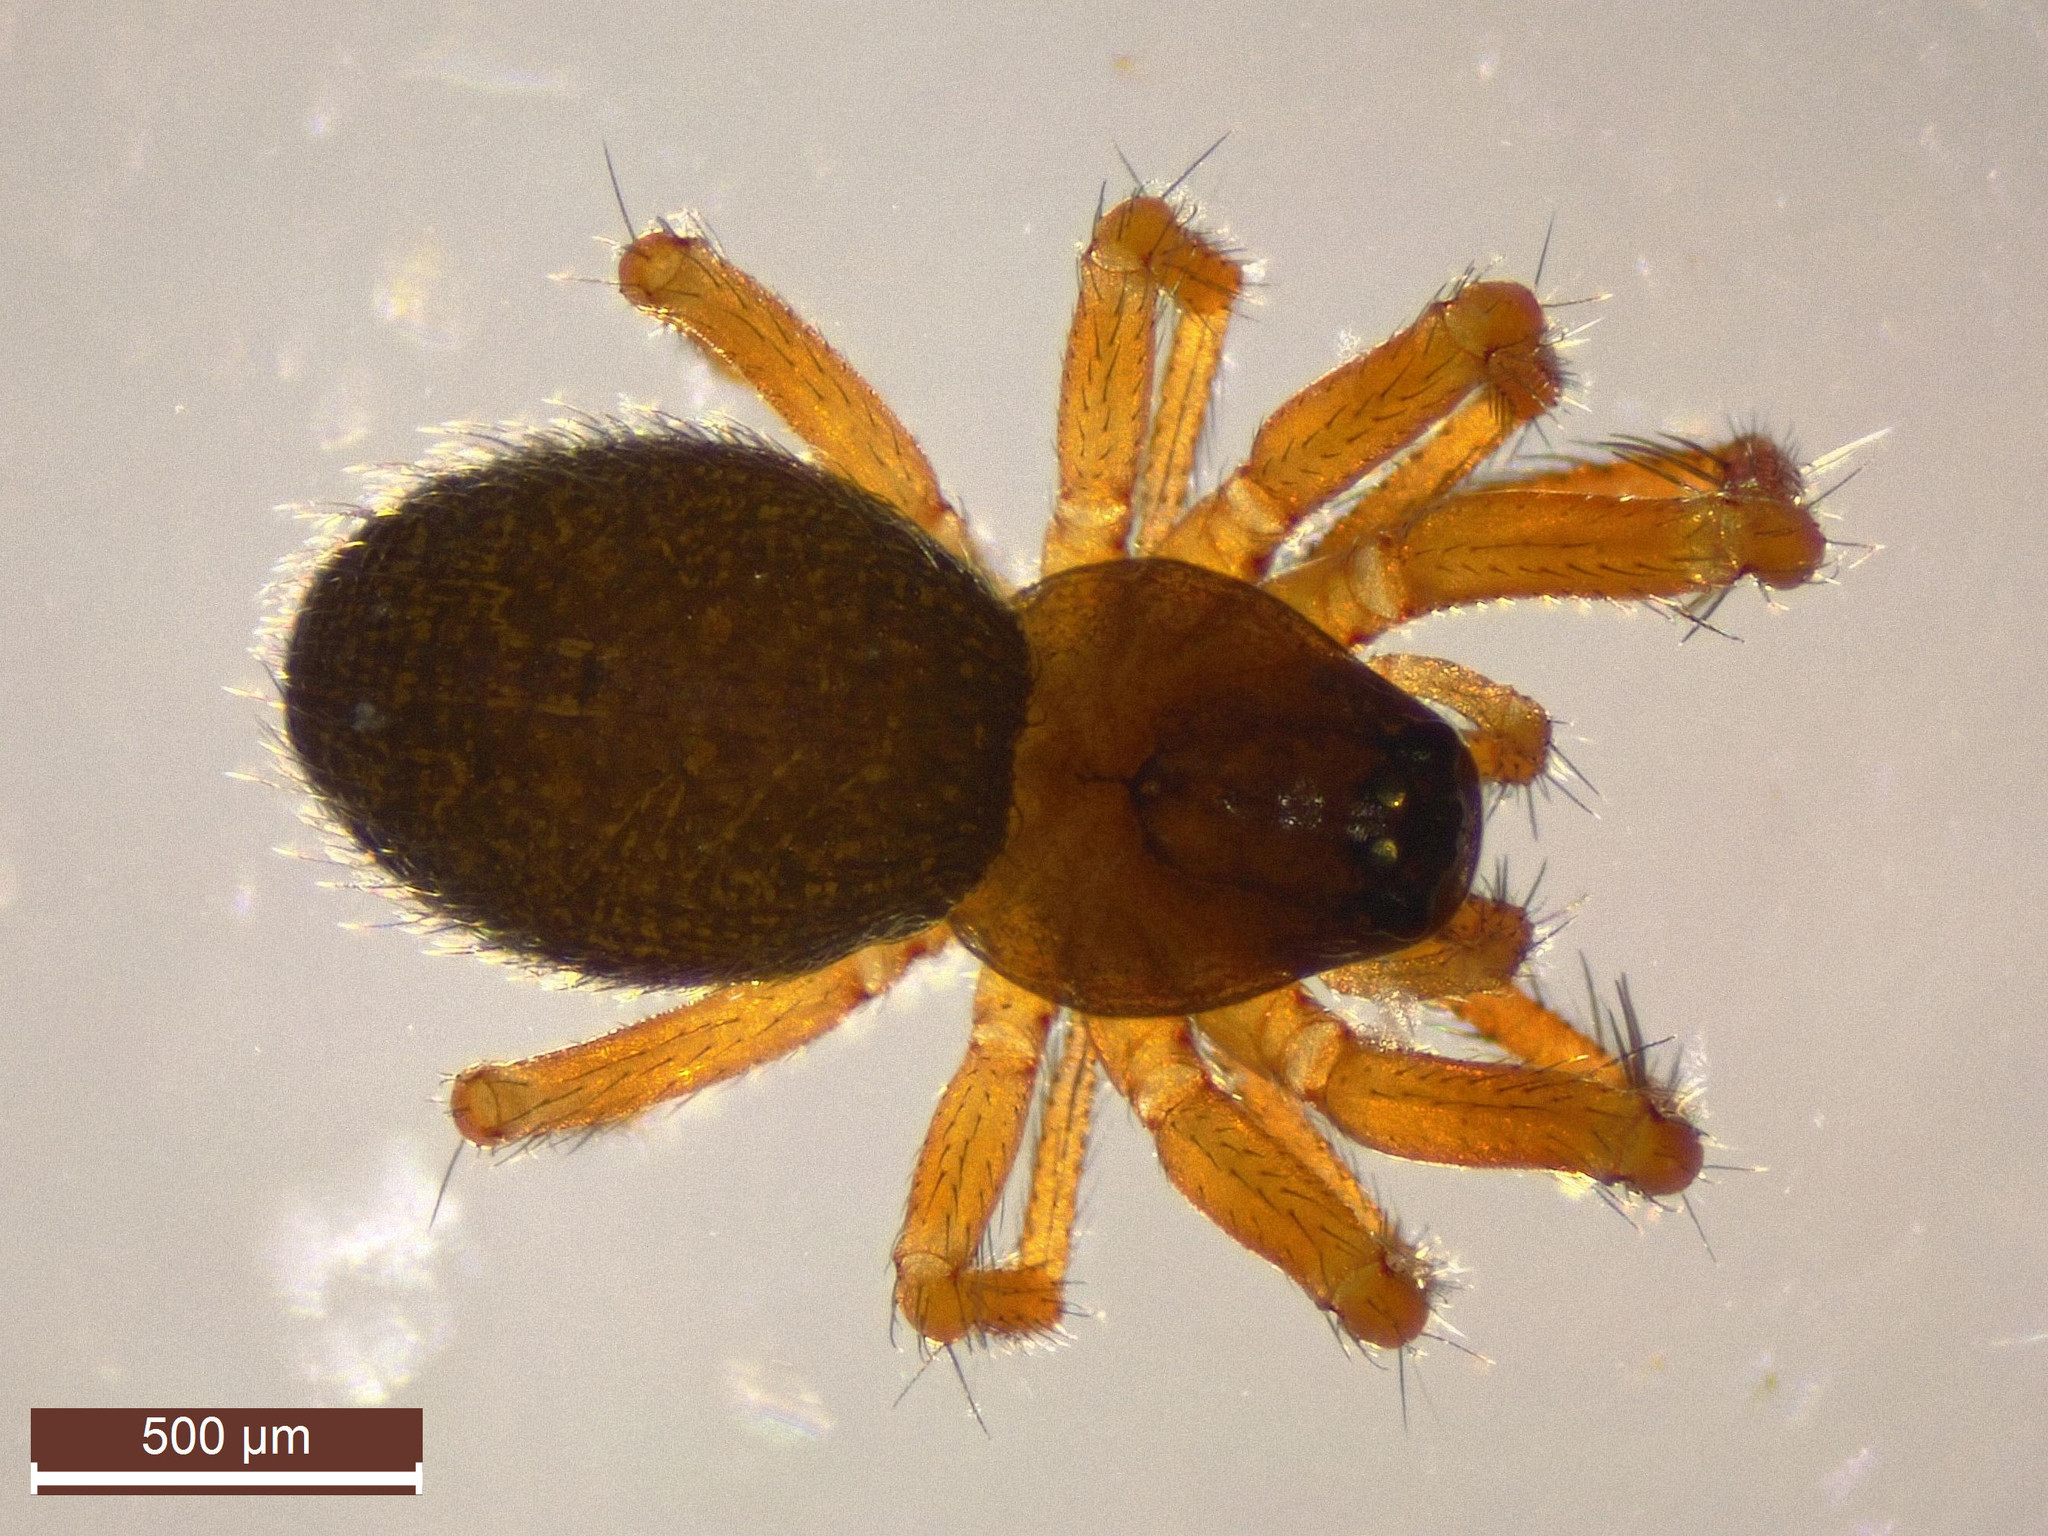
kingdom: Animalia
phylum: Arthropoda
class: Arachnida
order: Araneae
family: Linyphiidae
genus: Maso
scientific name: Maso sundevalli
